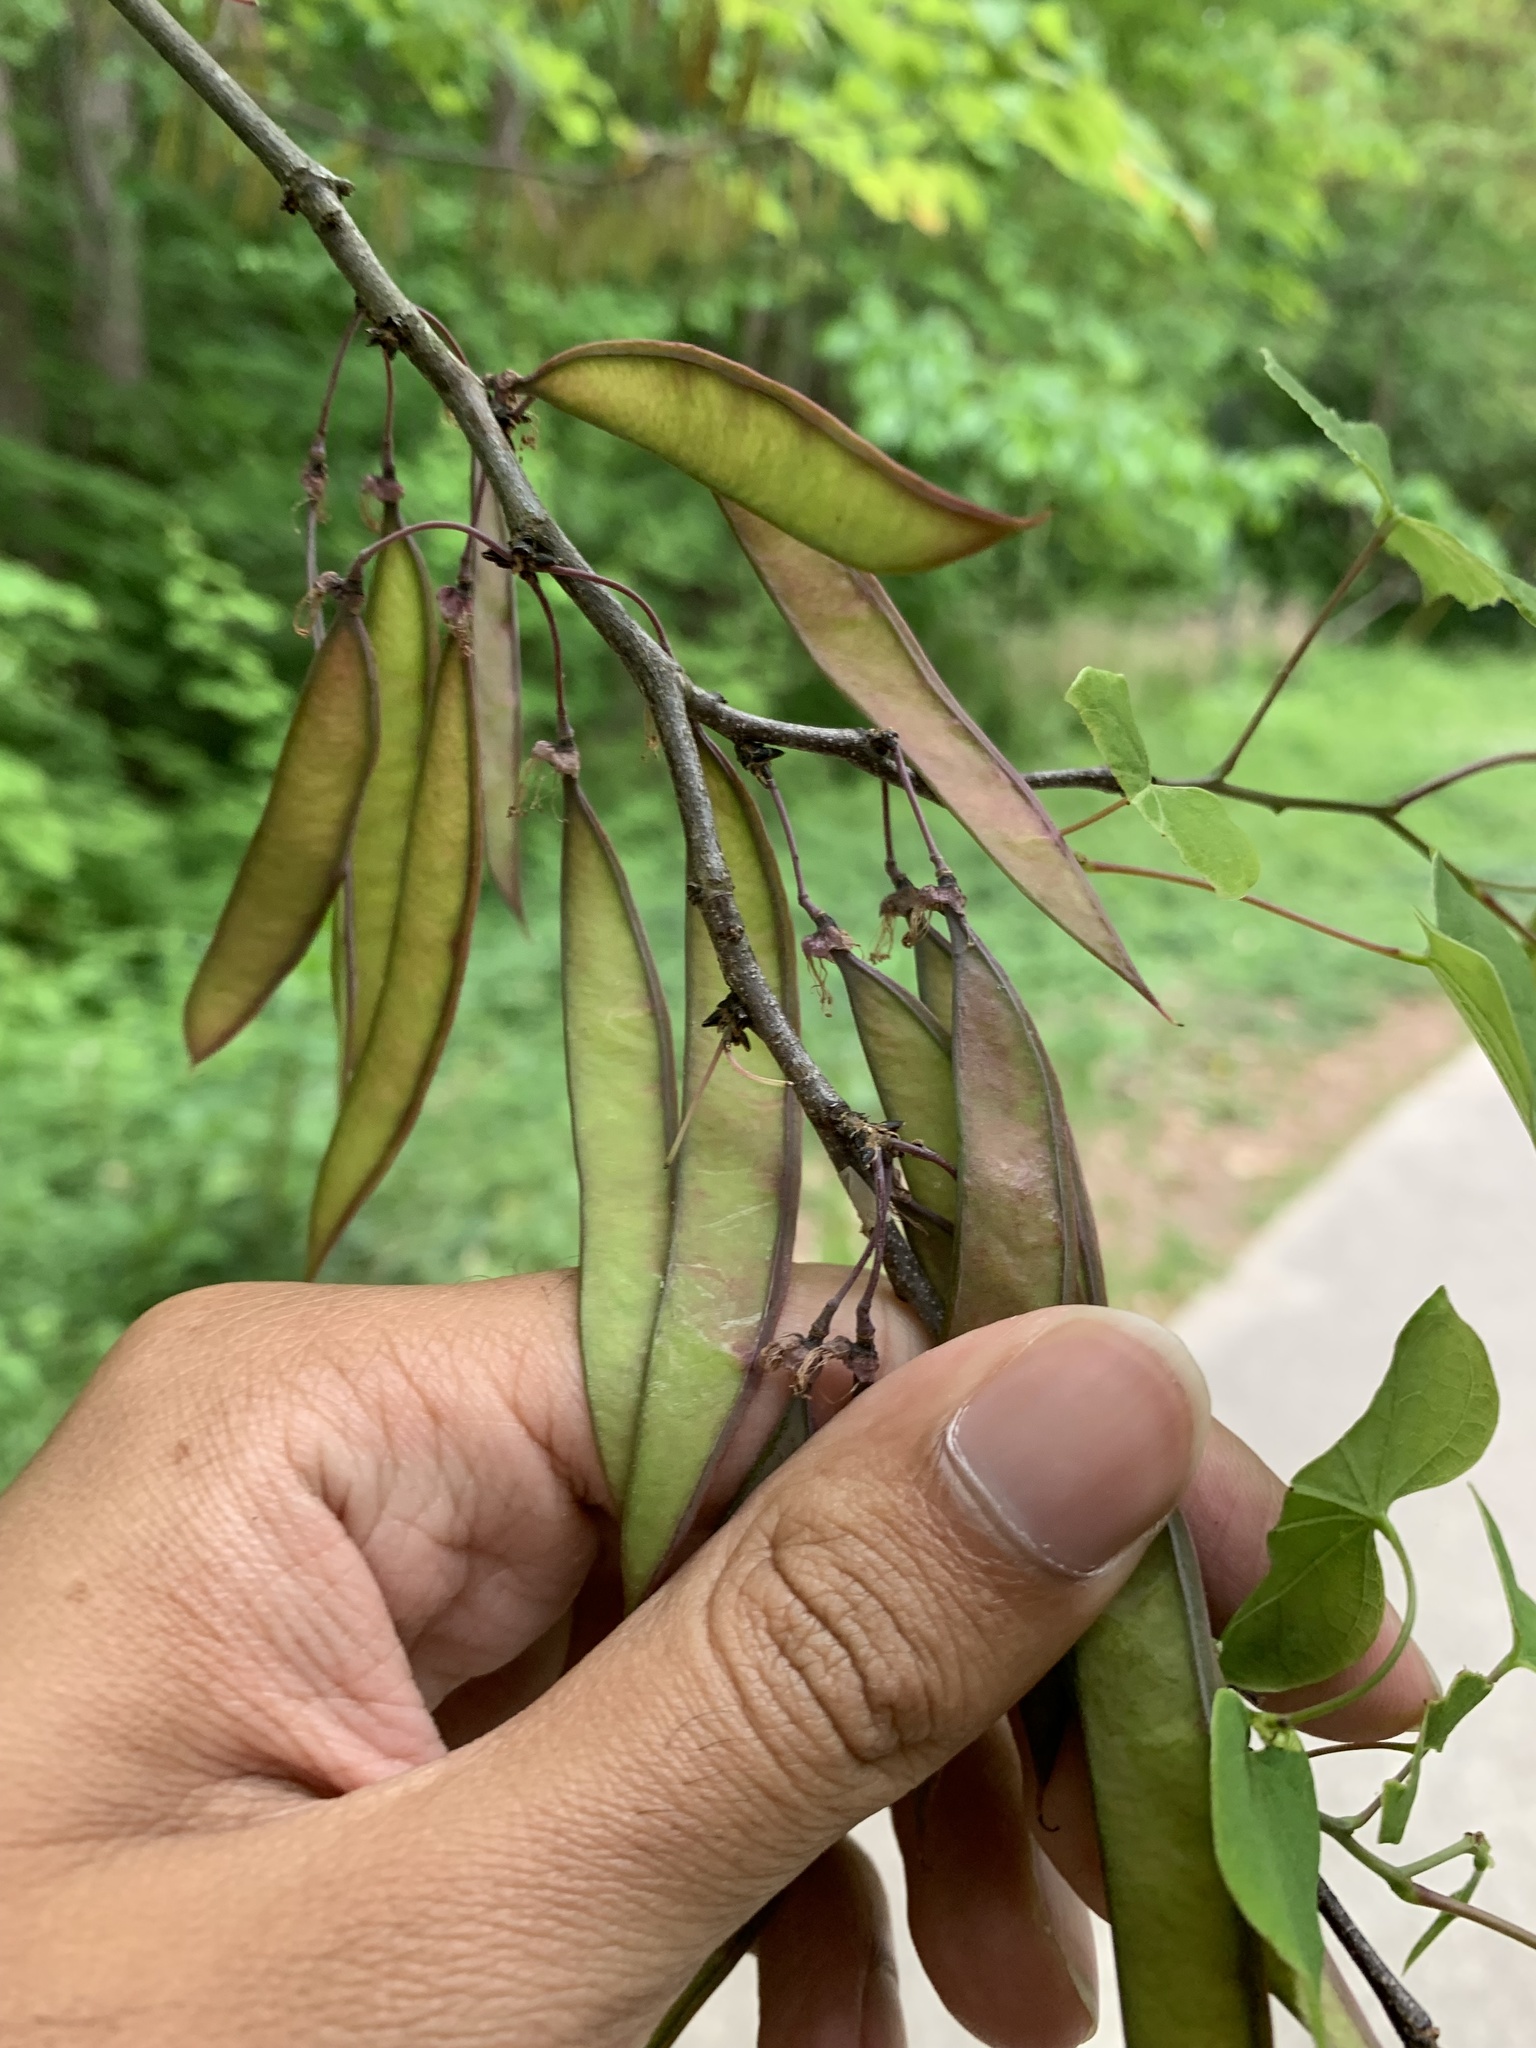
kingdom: Plantae
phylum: Tracheophyta
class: Magnoliopsida
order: Fabales
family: Fabaceae
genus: Cercis
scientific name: Cercis canadensis
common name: Eastern redbud
